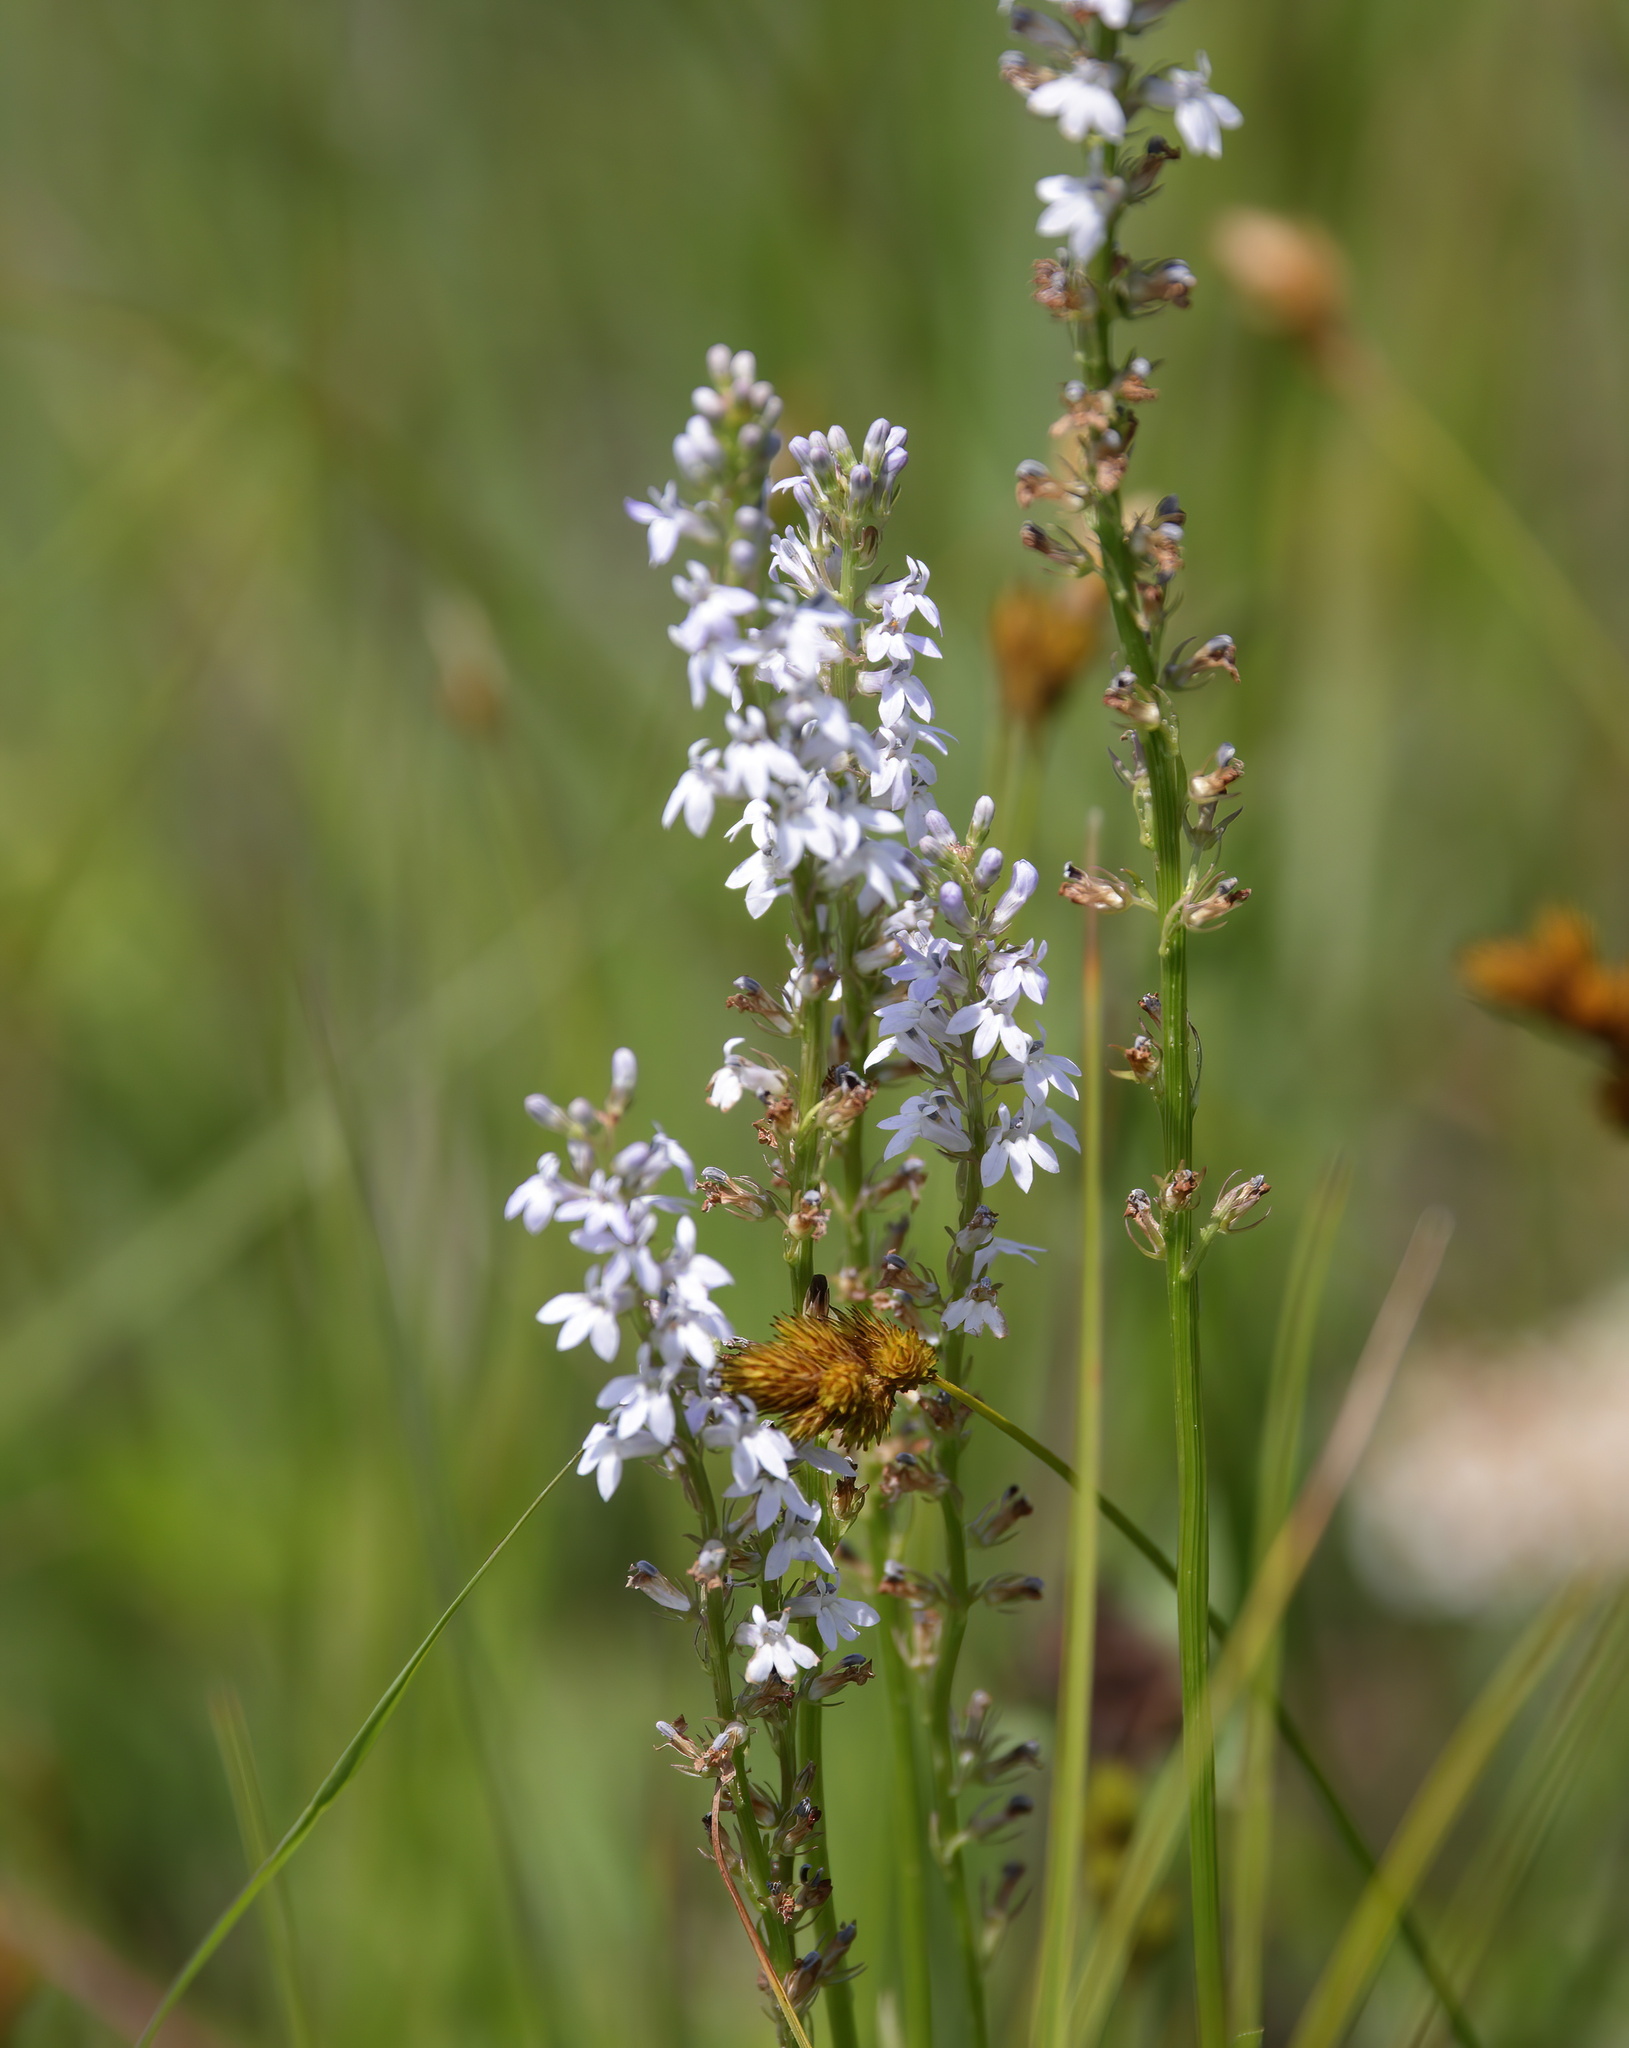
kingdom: Plantae
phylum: Tracheophyta
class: Magnoliopsida
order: Asterales
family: Campanulaceae
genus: Lobelia
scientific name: Lobelia spicata
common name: Pale-spike lobelia
